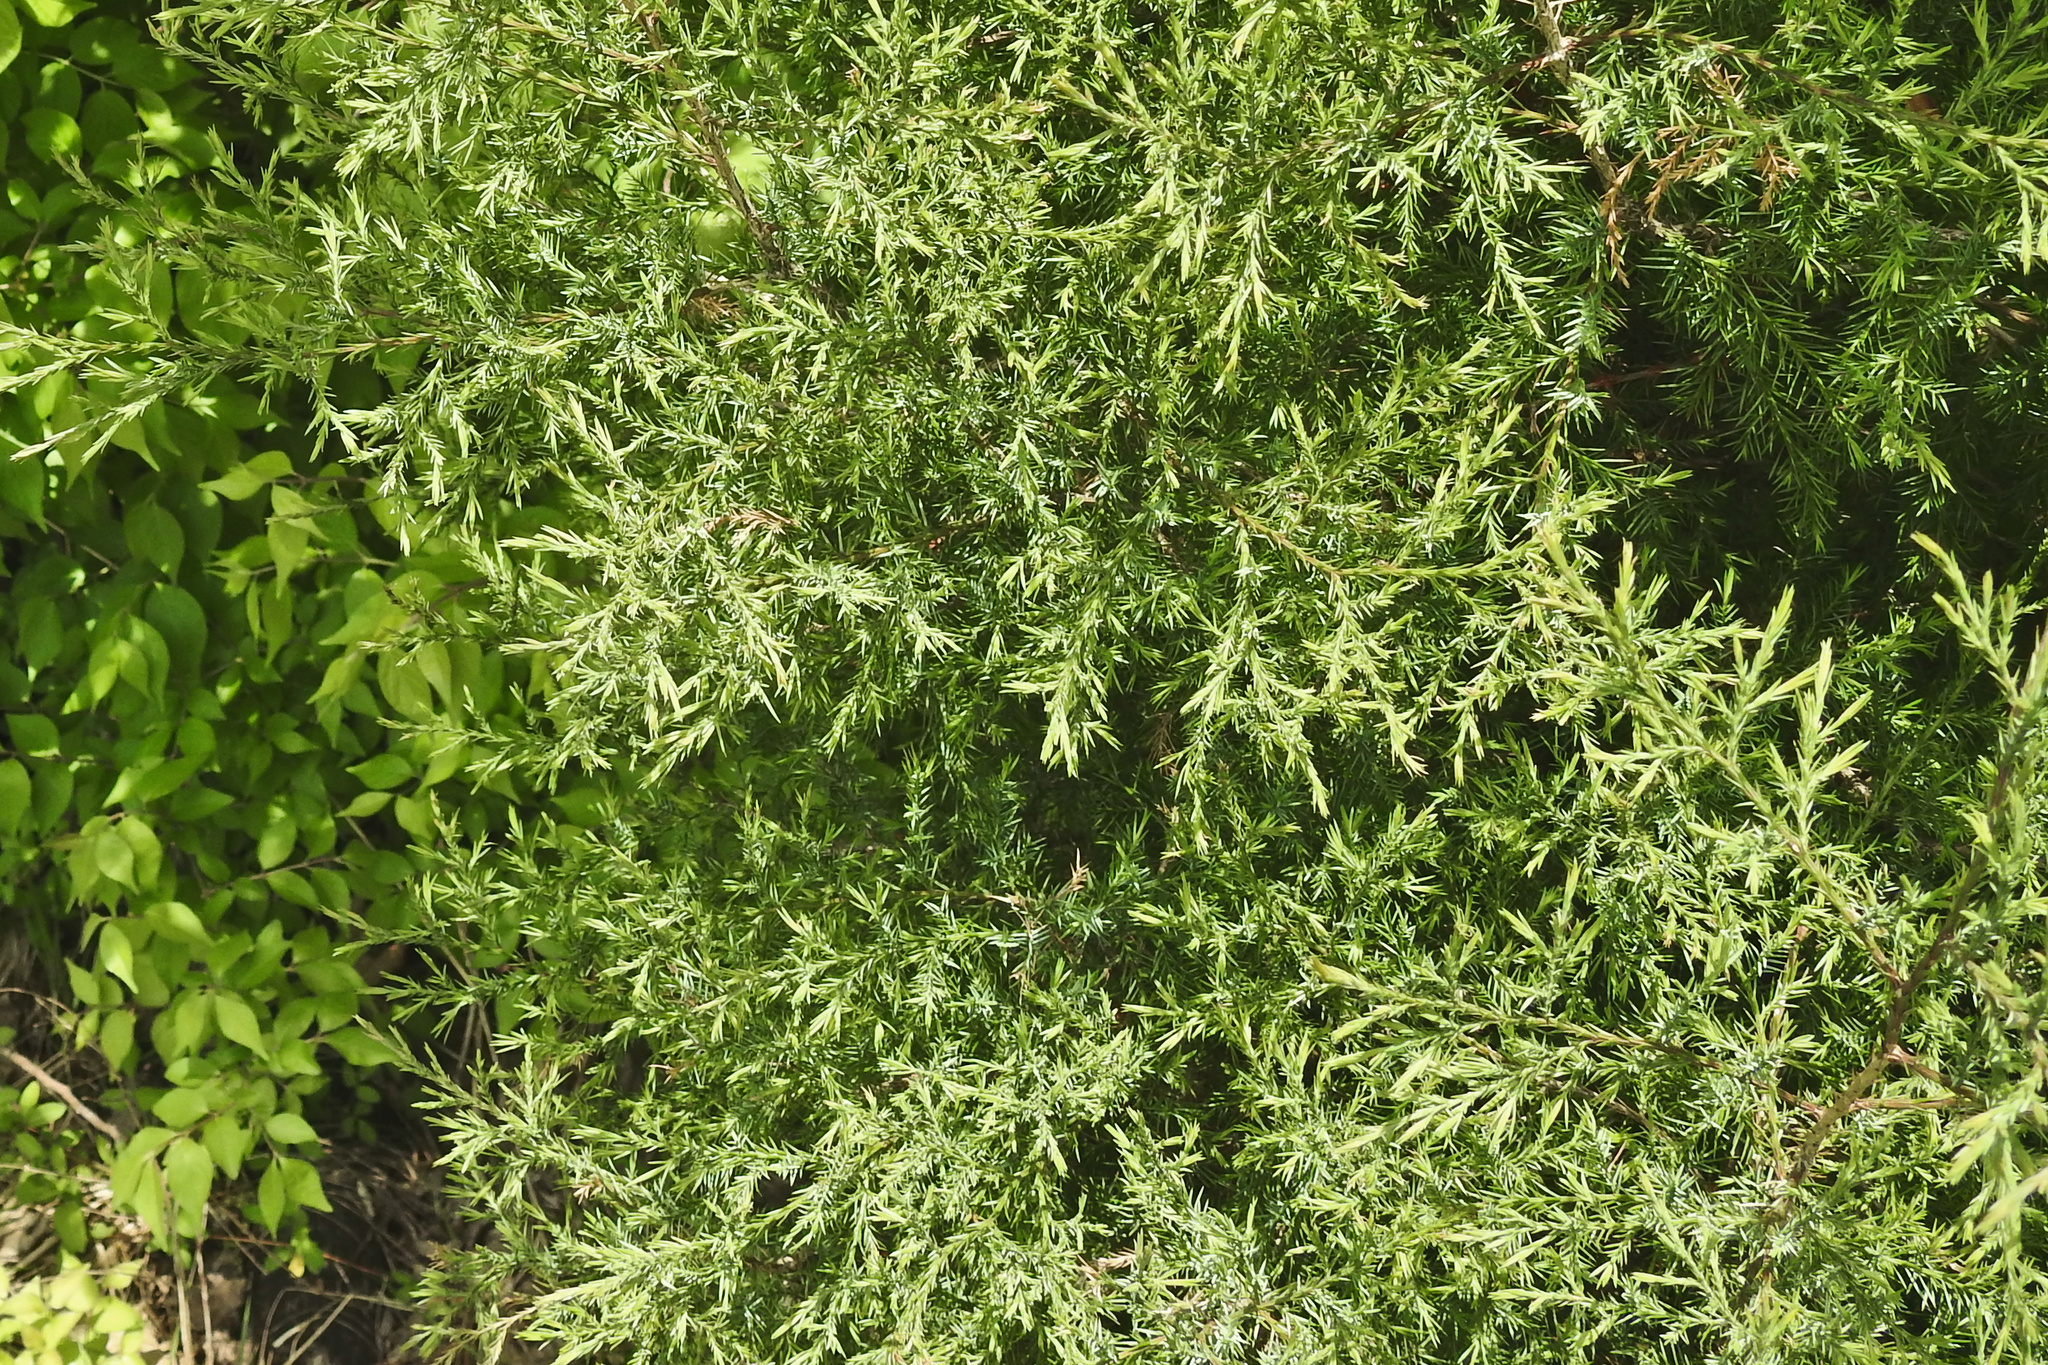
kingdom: Plantae
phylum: Tracheophyta
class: Pinopsida
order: Pinales
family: Cupressaceae
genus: Juniperus
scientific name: Juniperus virginiana
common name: Red juniper
